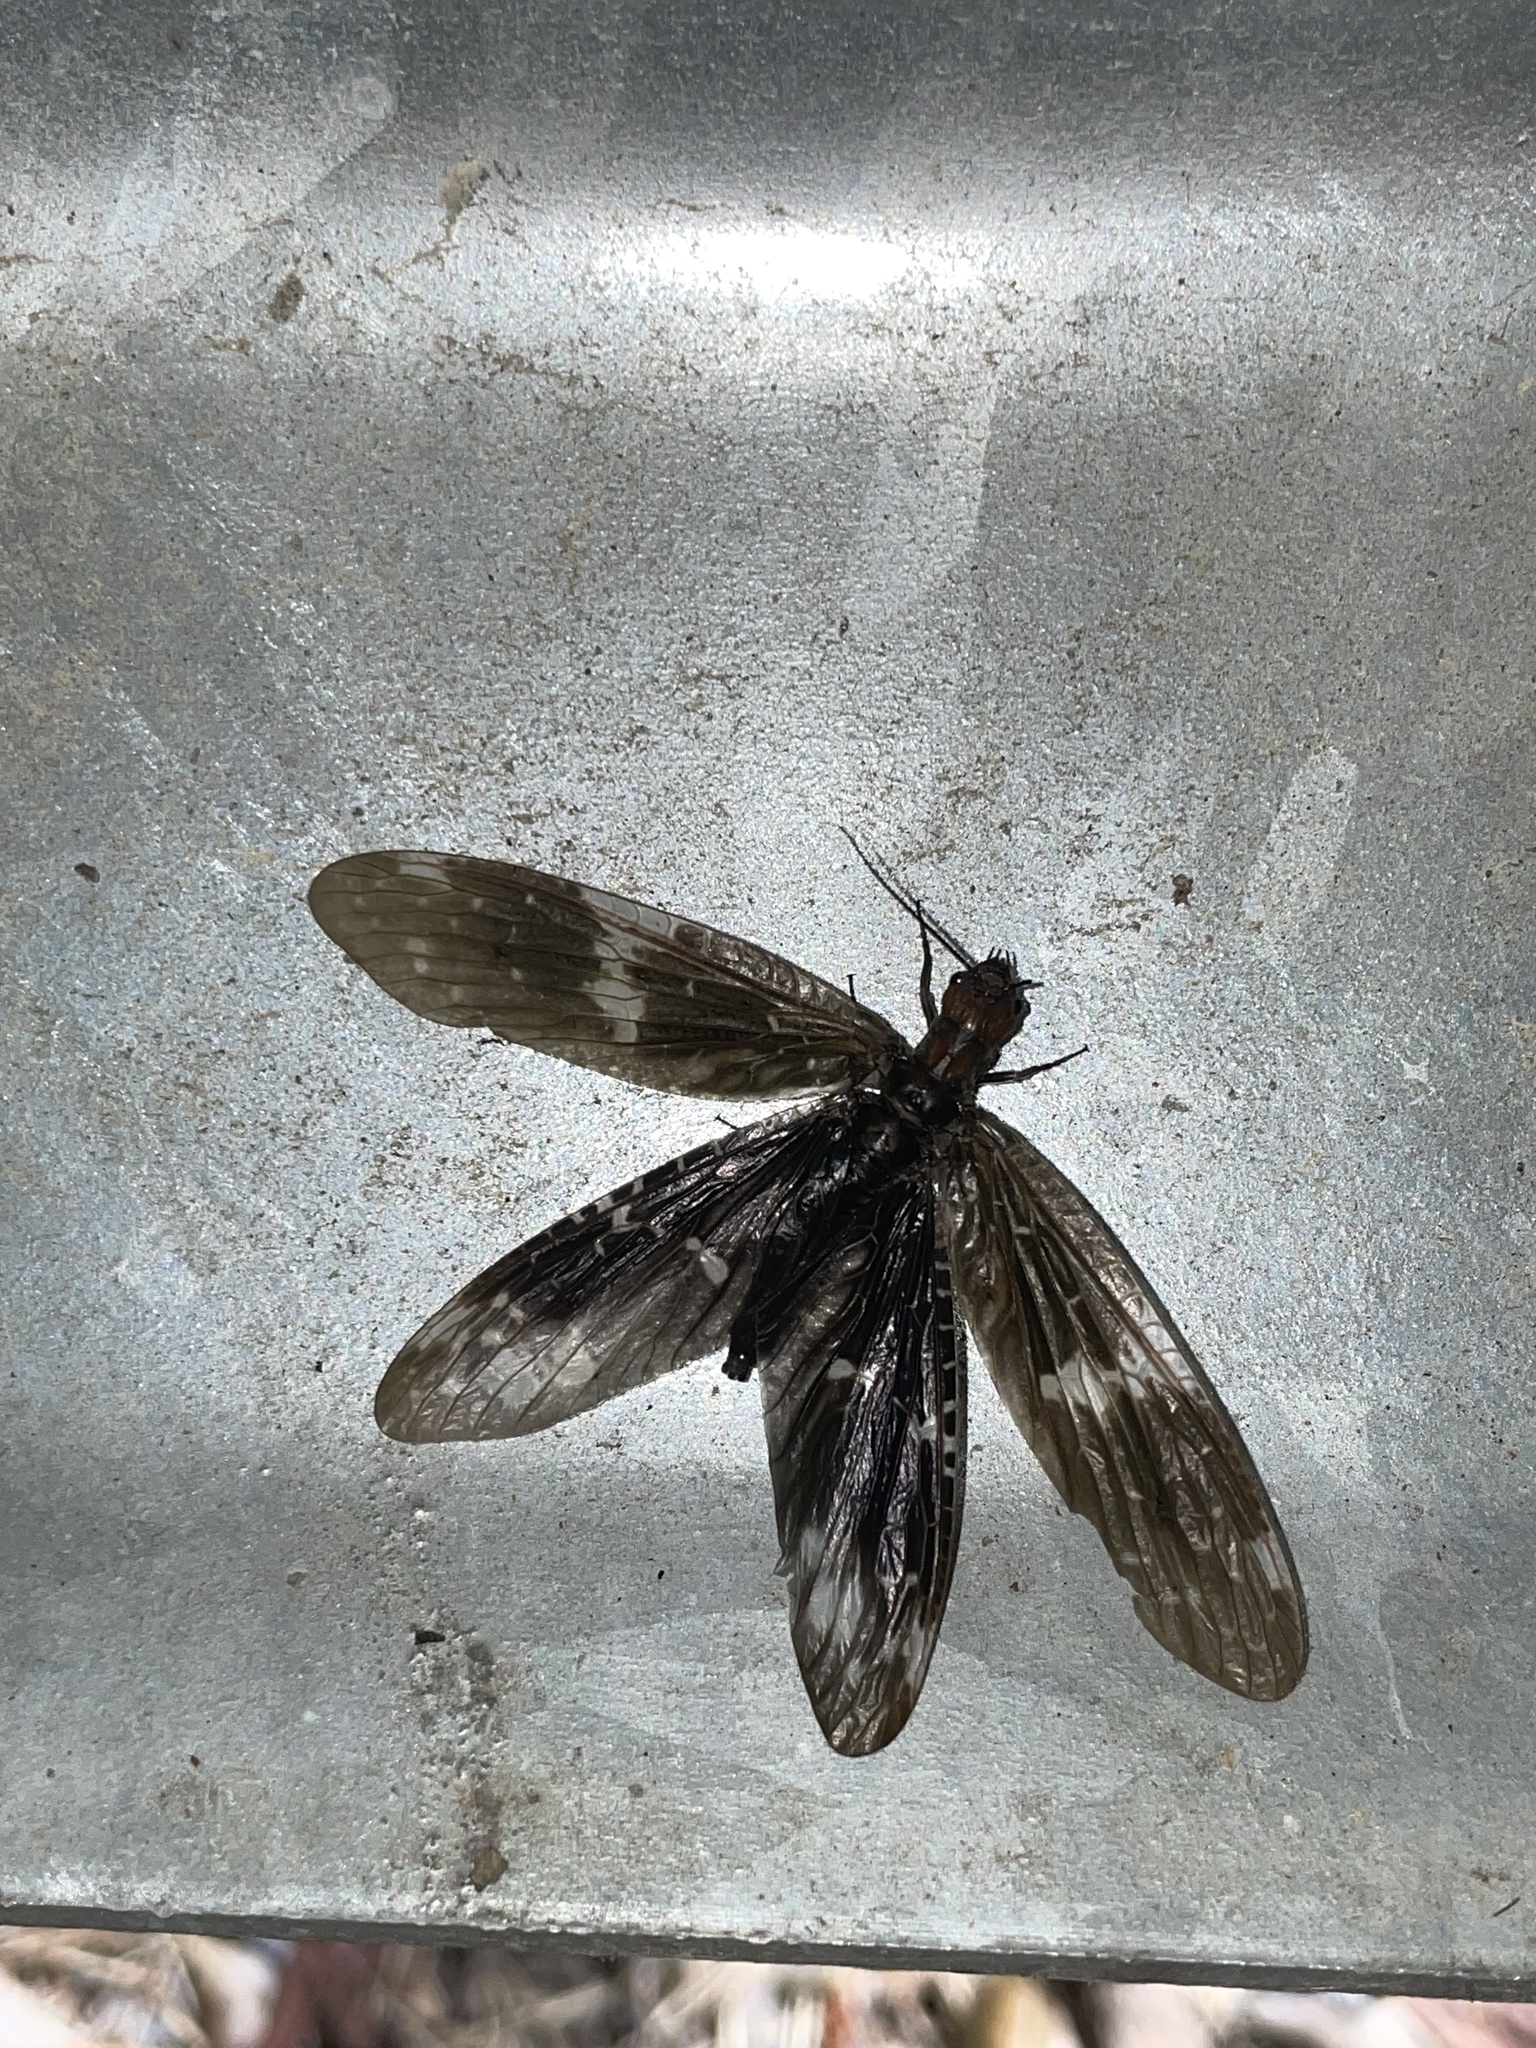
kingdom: Animalia
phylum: Arthropoda
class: Insecta
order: Megaloptera
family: Corydalidae
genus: Nigronia
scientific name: Nigronia serricornis
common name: Serrate dark fishfly
